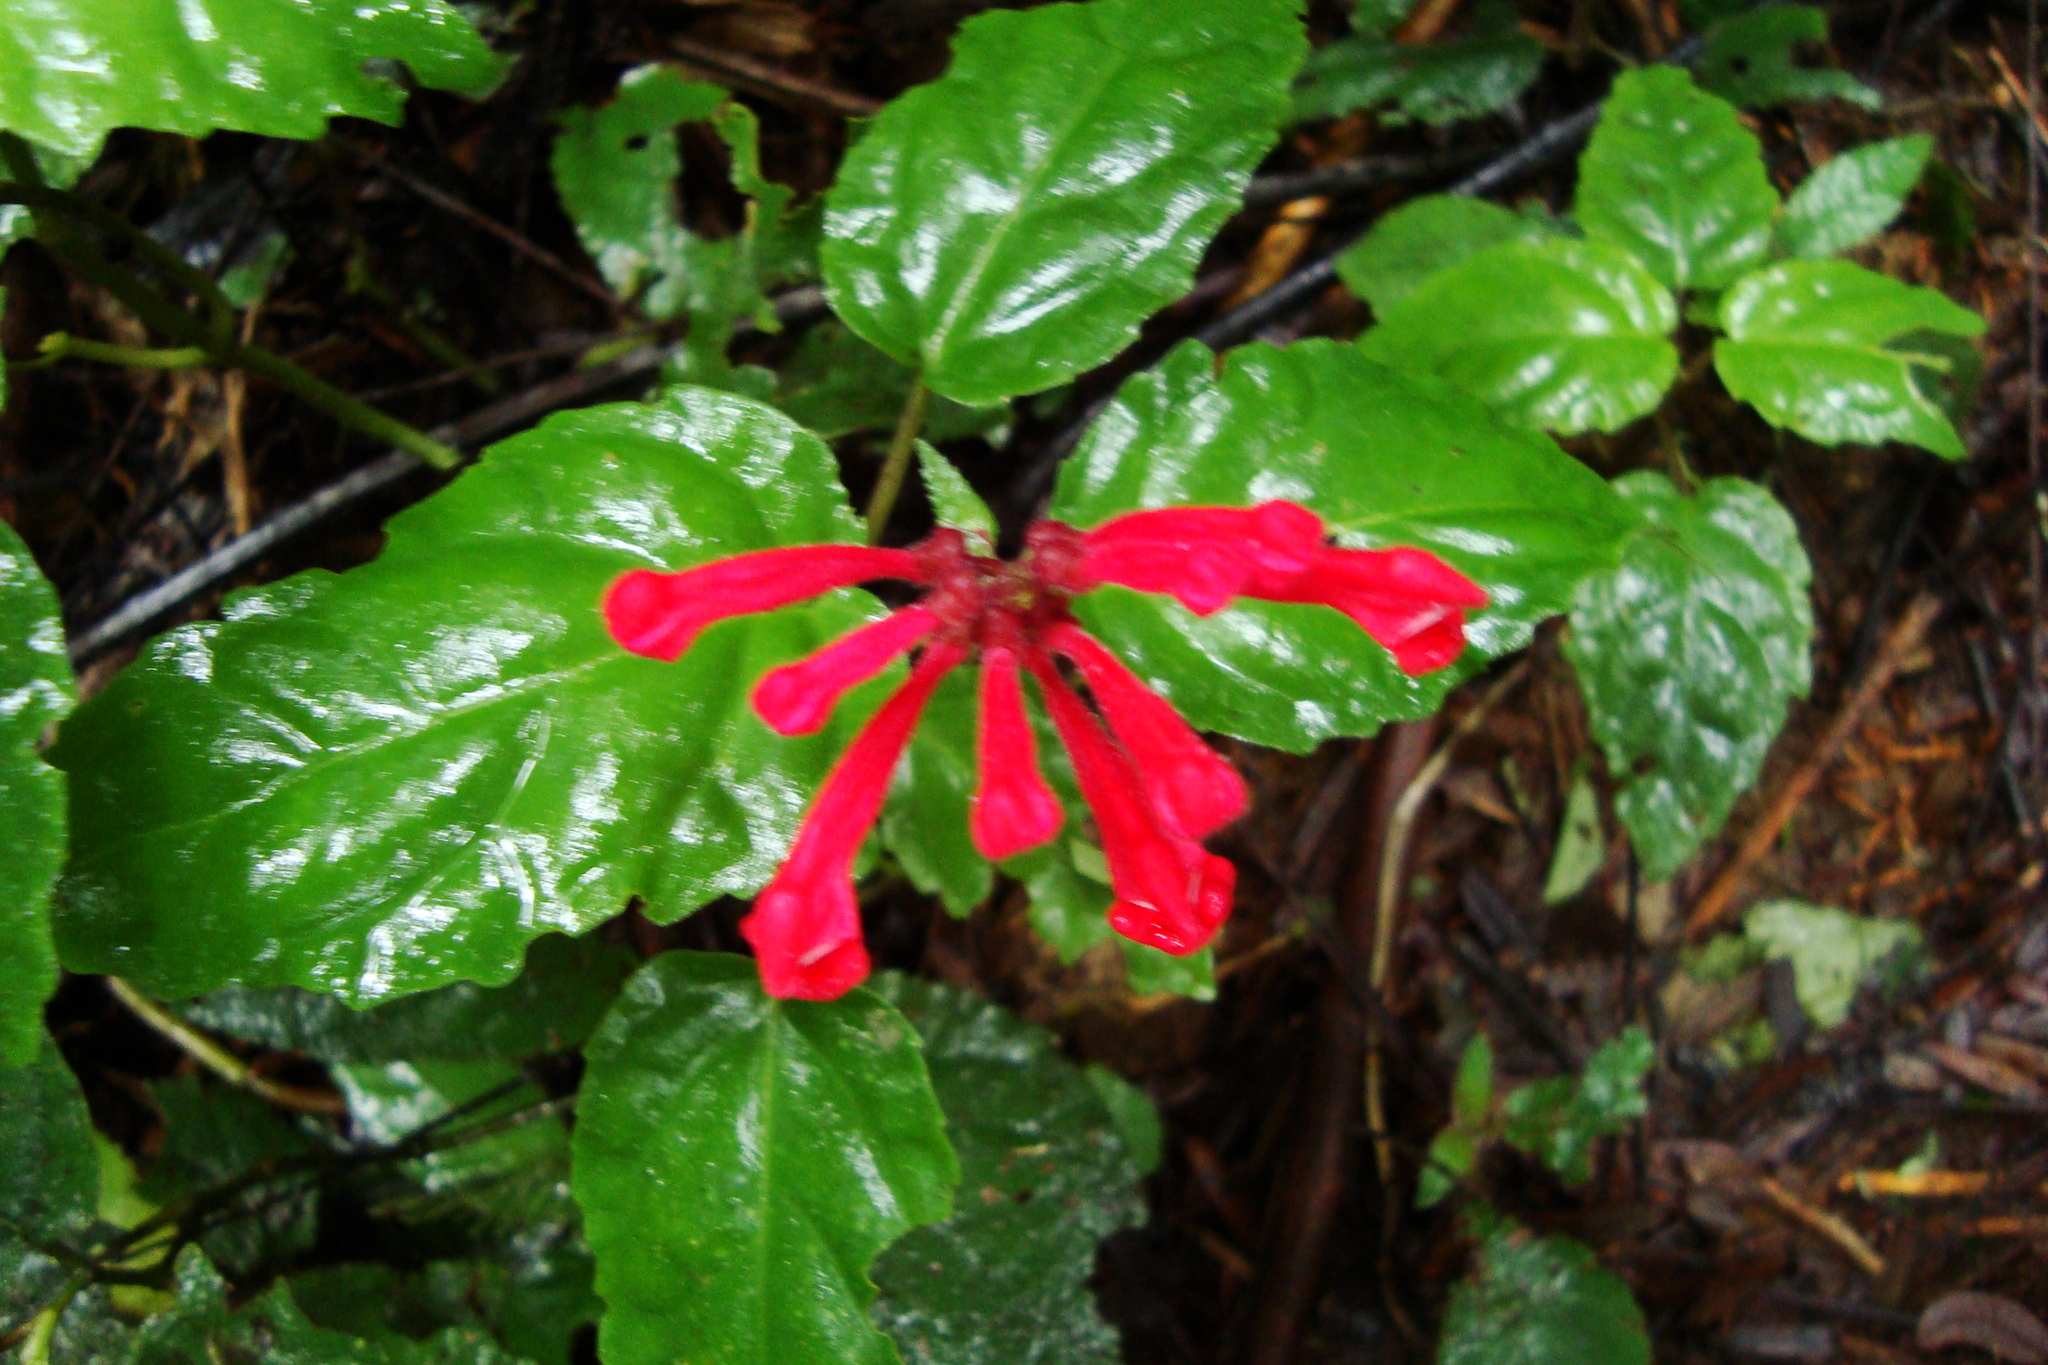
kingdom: Plantae
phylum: Tracheophyta
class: Magnoliopsida
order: Lamiales
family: Lamiaceae
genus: Scutellaria
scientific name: Scutellaria coccinea
